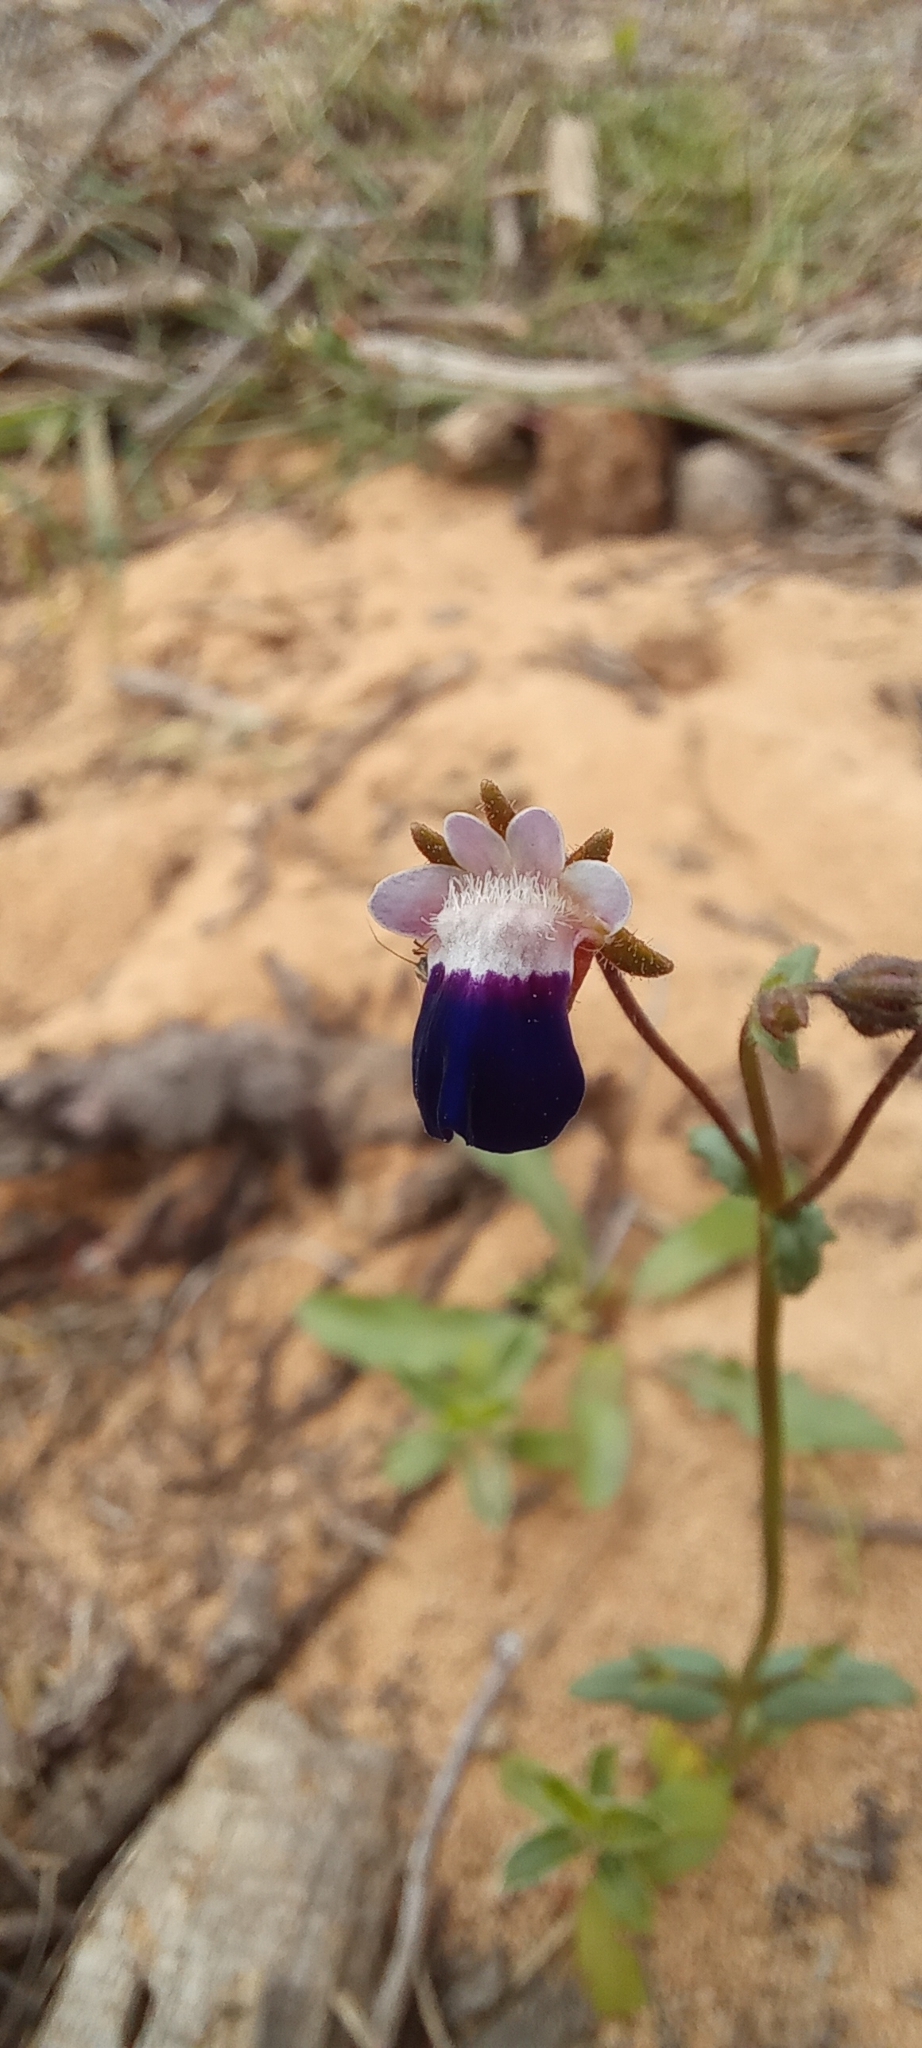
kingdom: Plantae
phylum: Tracheophyta
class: Magnoliopsida
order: Lamiales
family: Scrophulariaceae
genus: Nemesia
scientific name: Nemesia barbata
